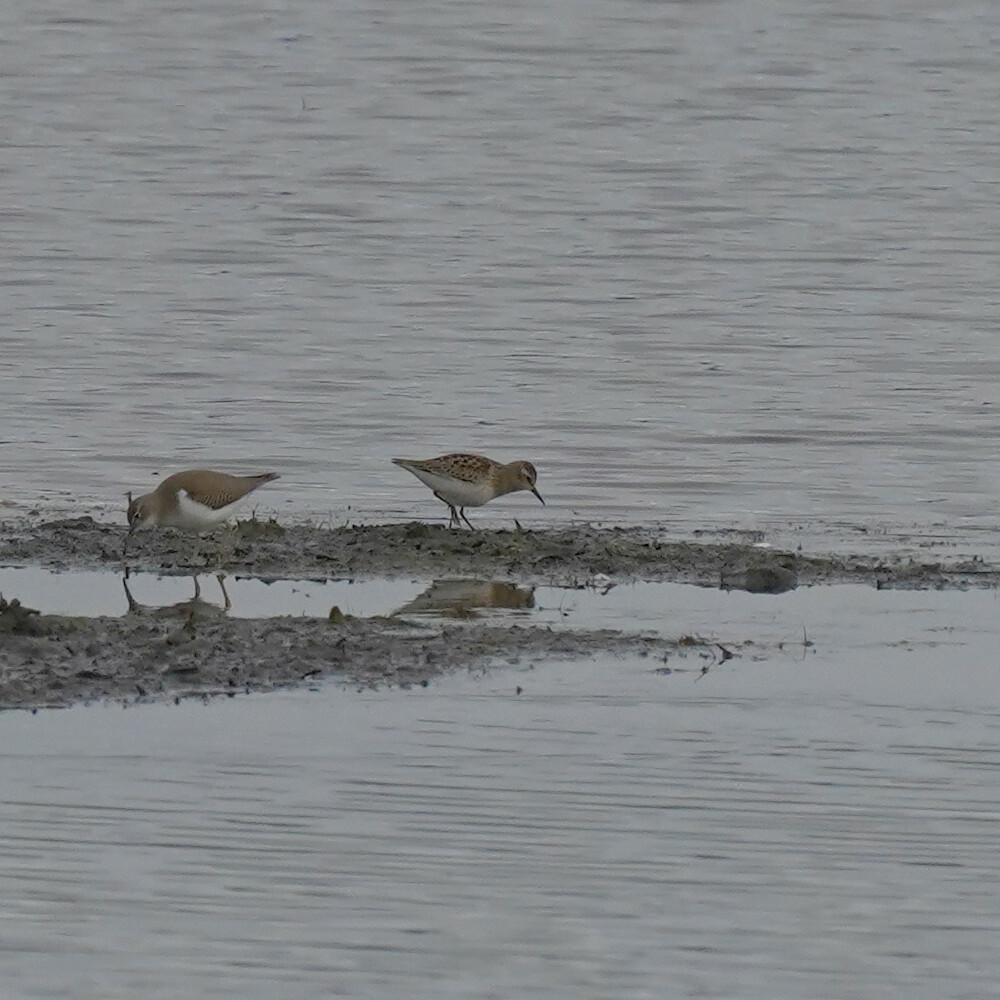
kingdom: Animalia
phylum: Chordata
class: Aves
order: Charadriiformes
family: Scolopacidae
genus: Calidris
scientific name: Calidris minutilla
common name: Least sandpiper
